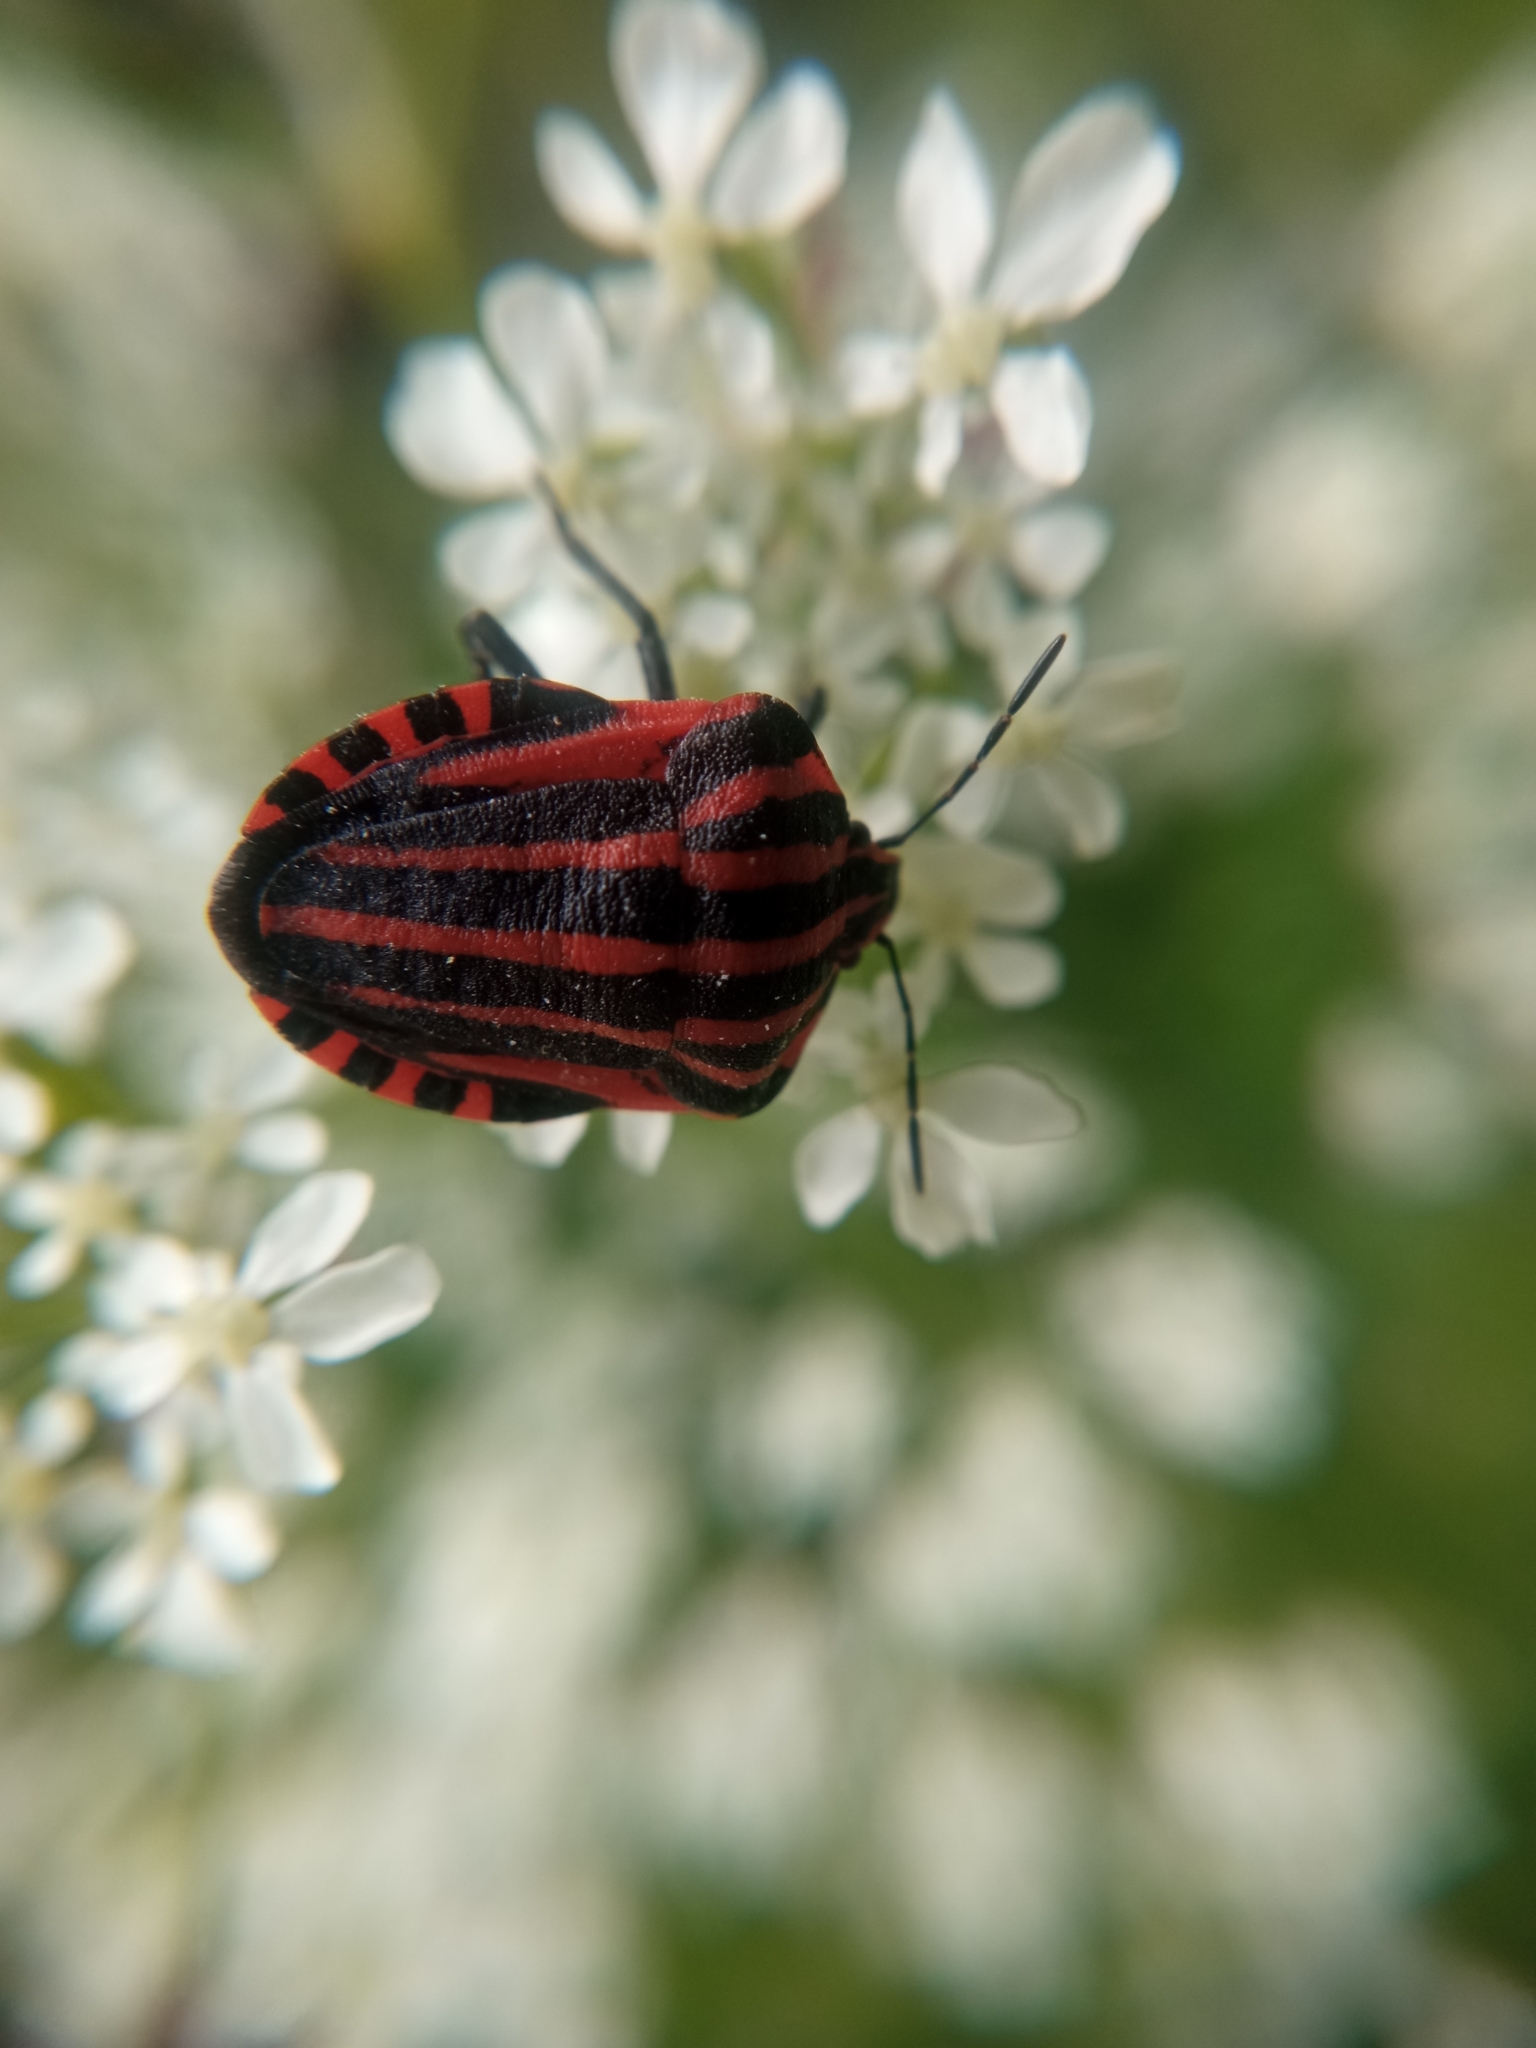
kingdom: Animalia
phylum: Arthropoda
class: Insecta
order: Hemiptera
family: Pentatomidae
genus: Graphosoma
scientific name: Graphosoma italicum
